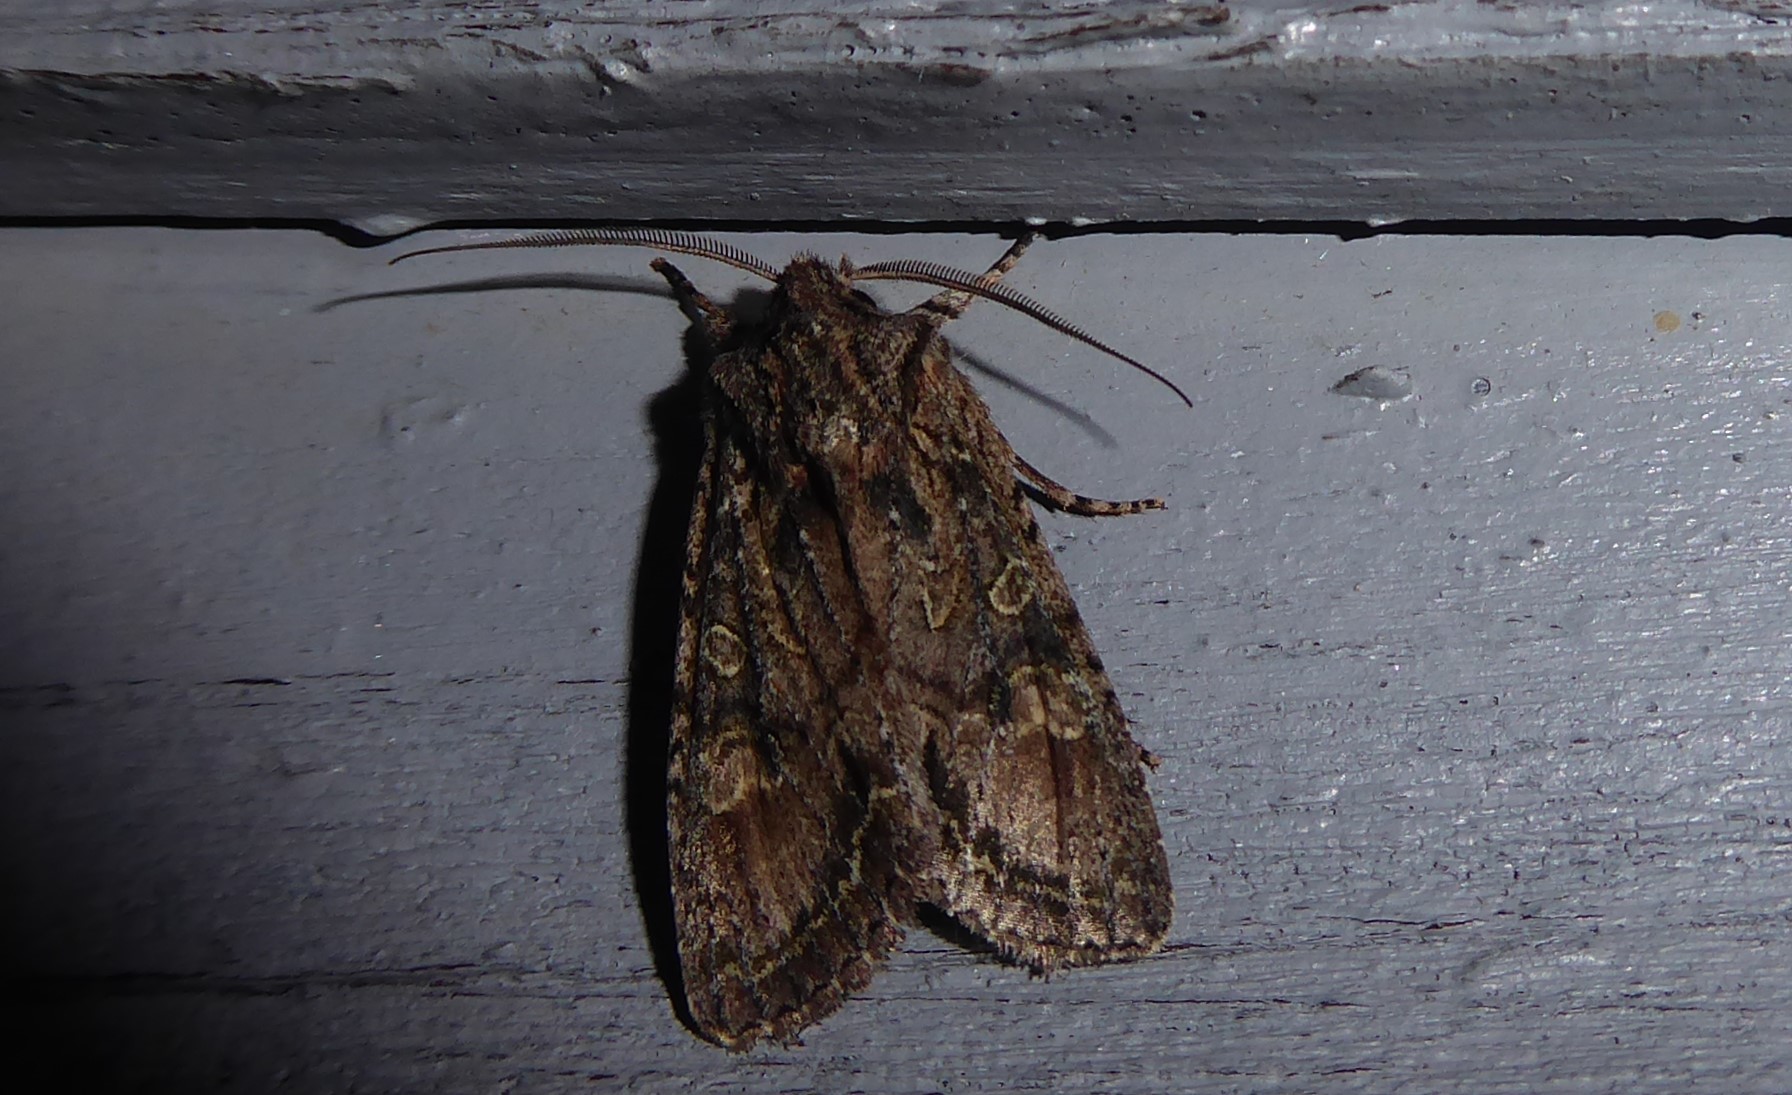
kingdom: Animalia
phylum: Arthropoda
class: Insecta
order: Lepidoptera
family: Noctuidae
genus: Ichneutica
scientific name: Ichneutica mutans
